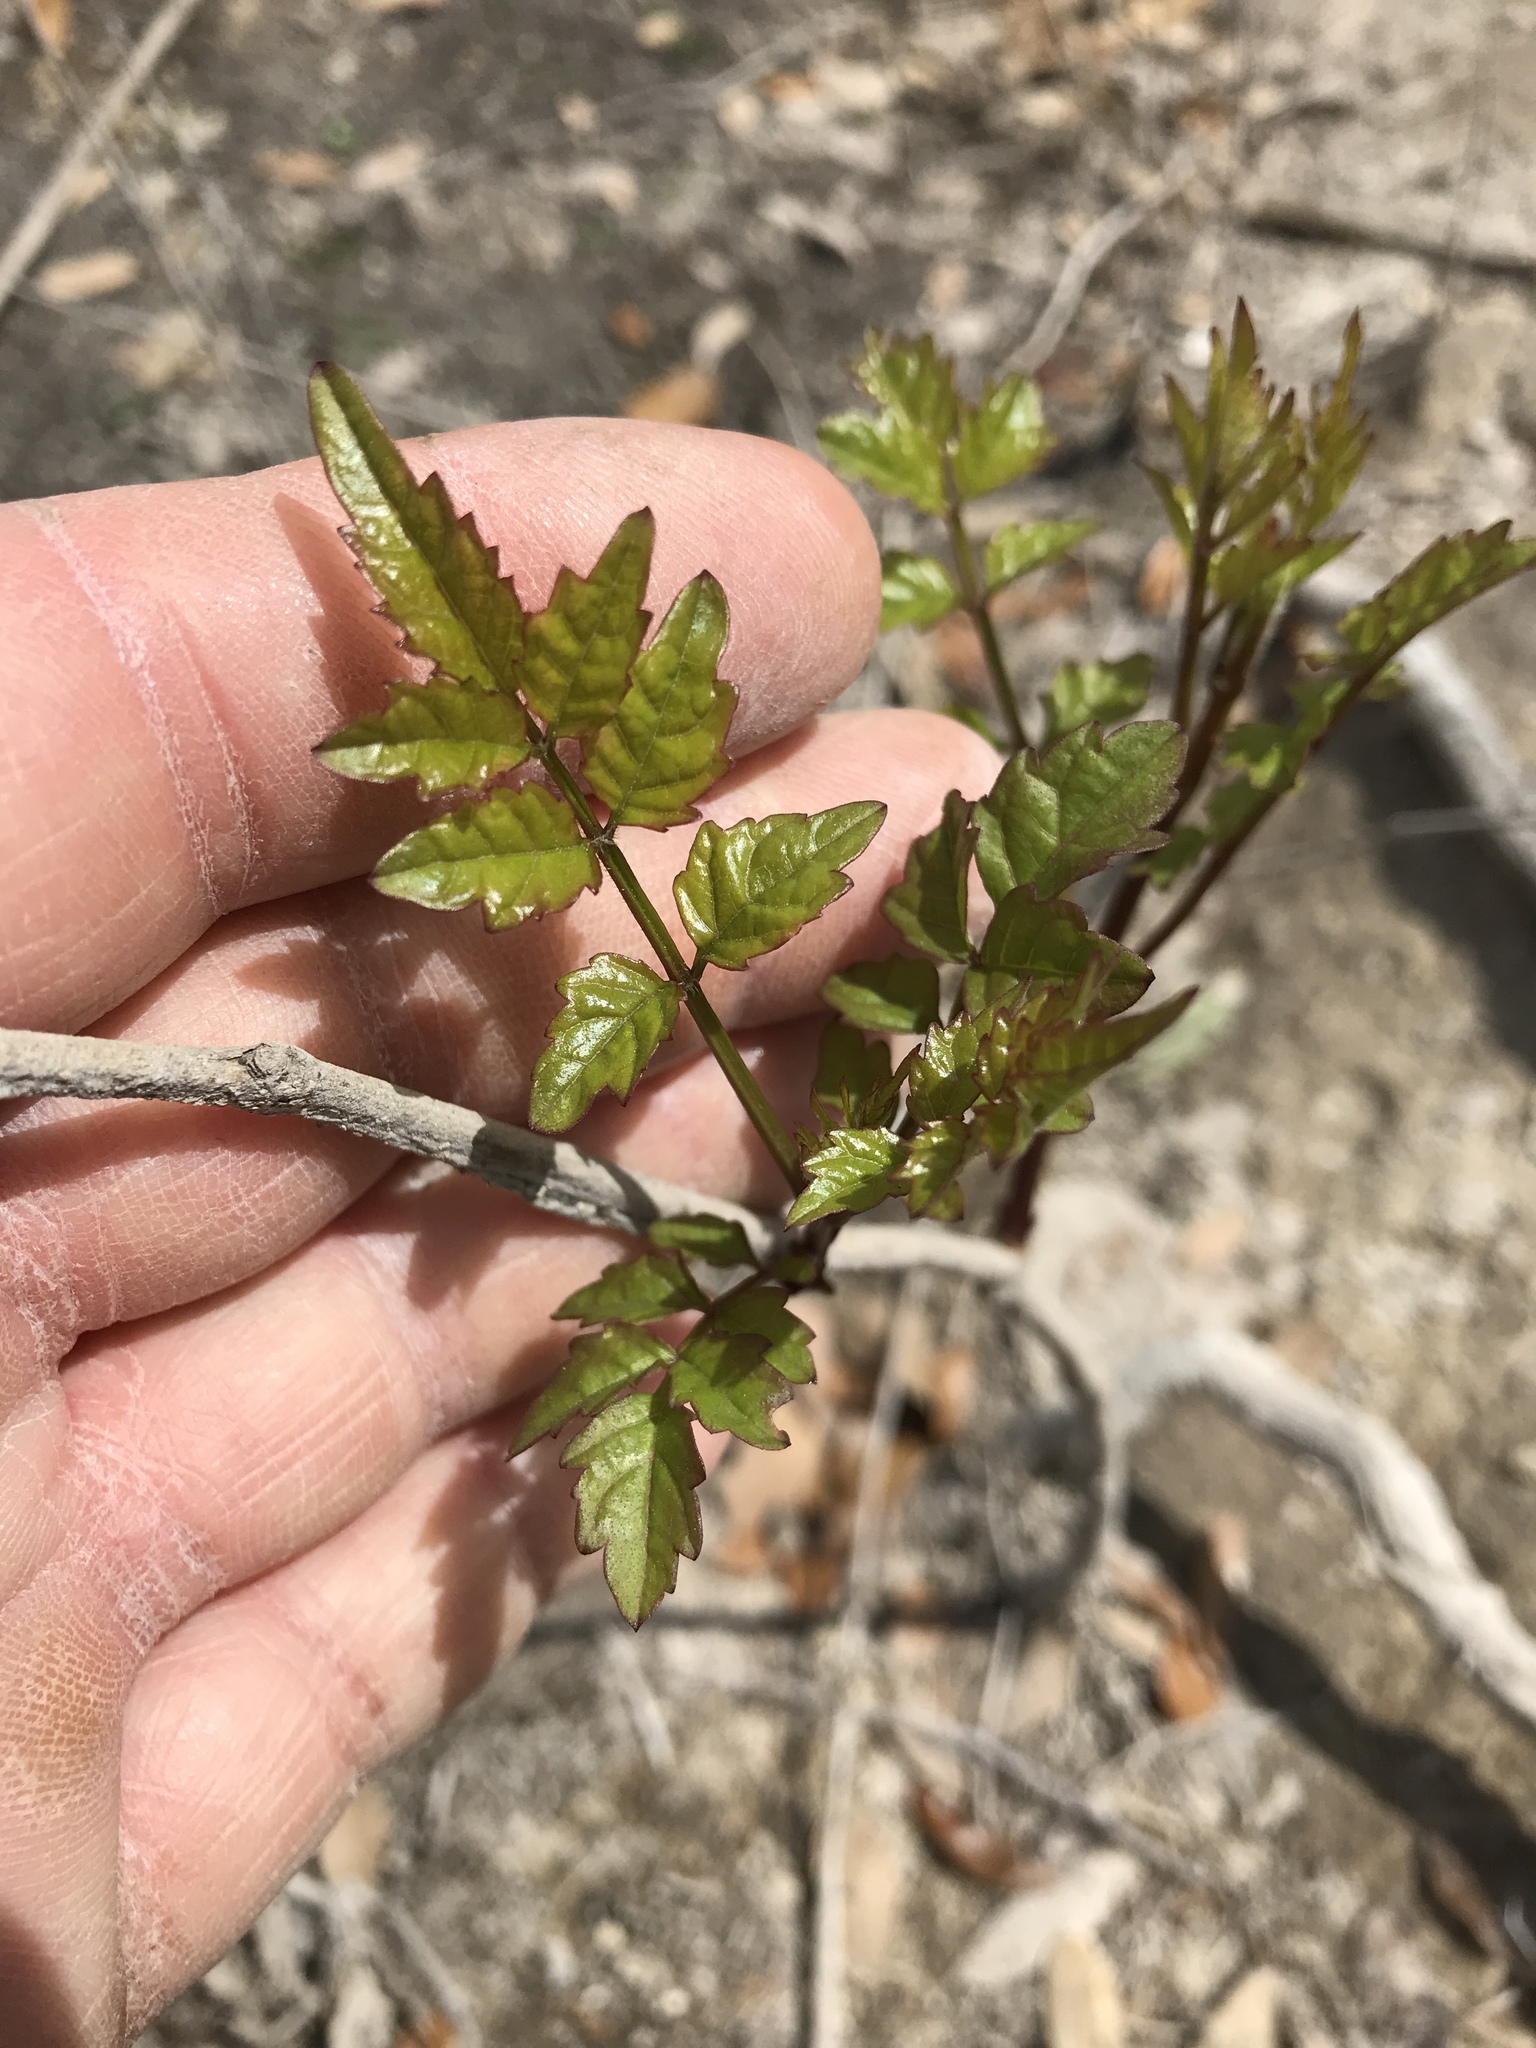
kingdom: Plantae
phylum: Tracheophyta
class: Magnoliopsida
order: Lamiales
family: Bignoniaceae
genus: Campsis
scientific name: Campsis radicans
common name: Trumpet-creeper
